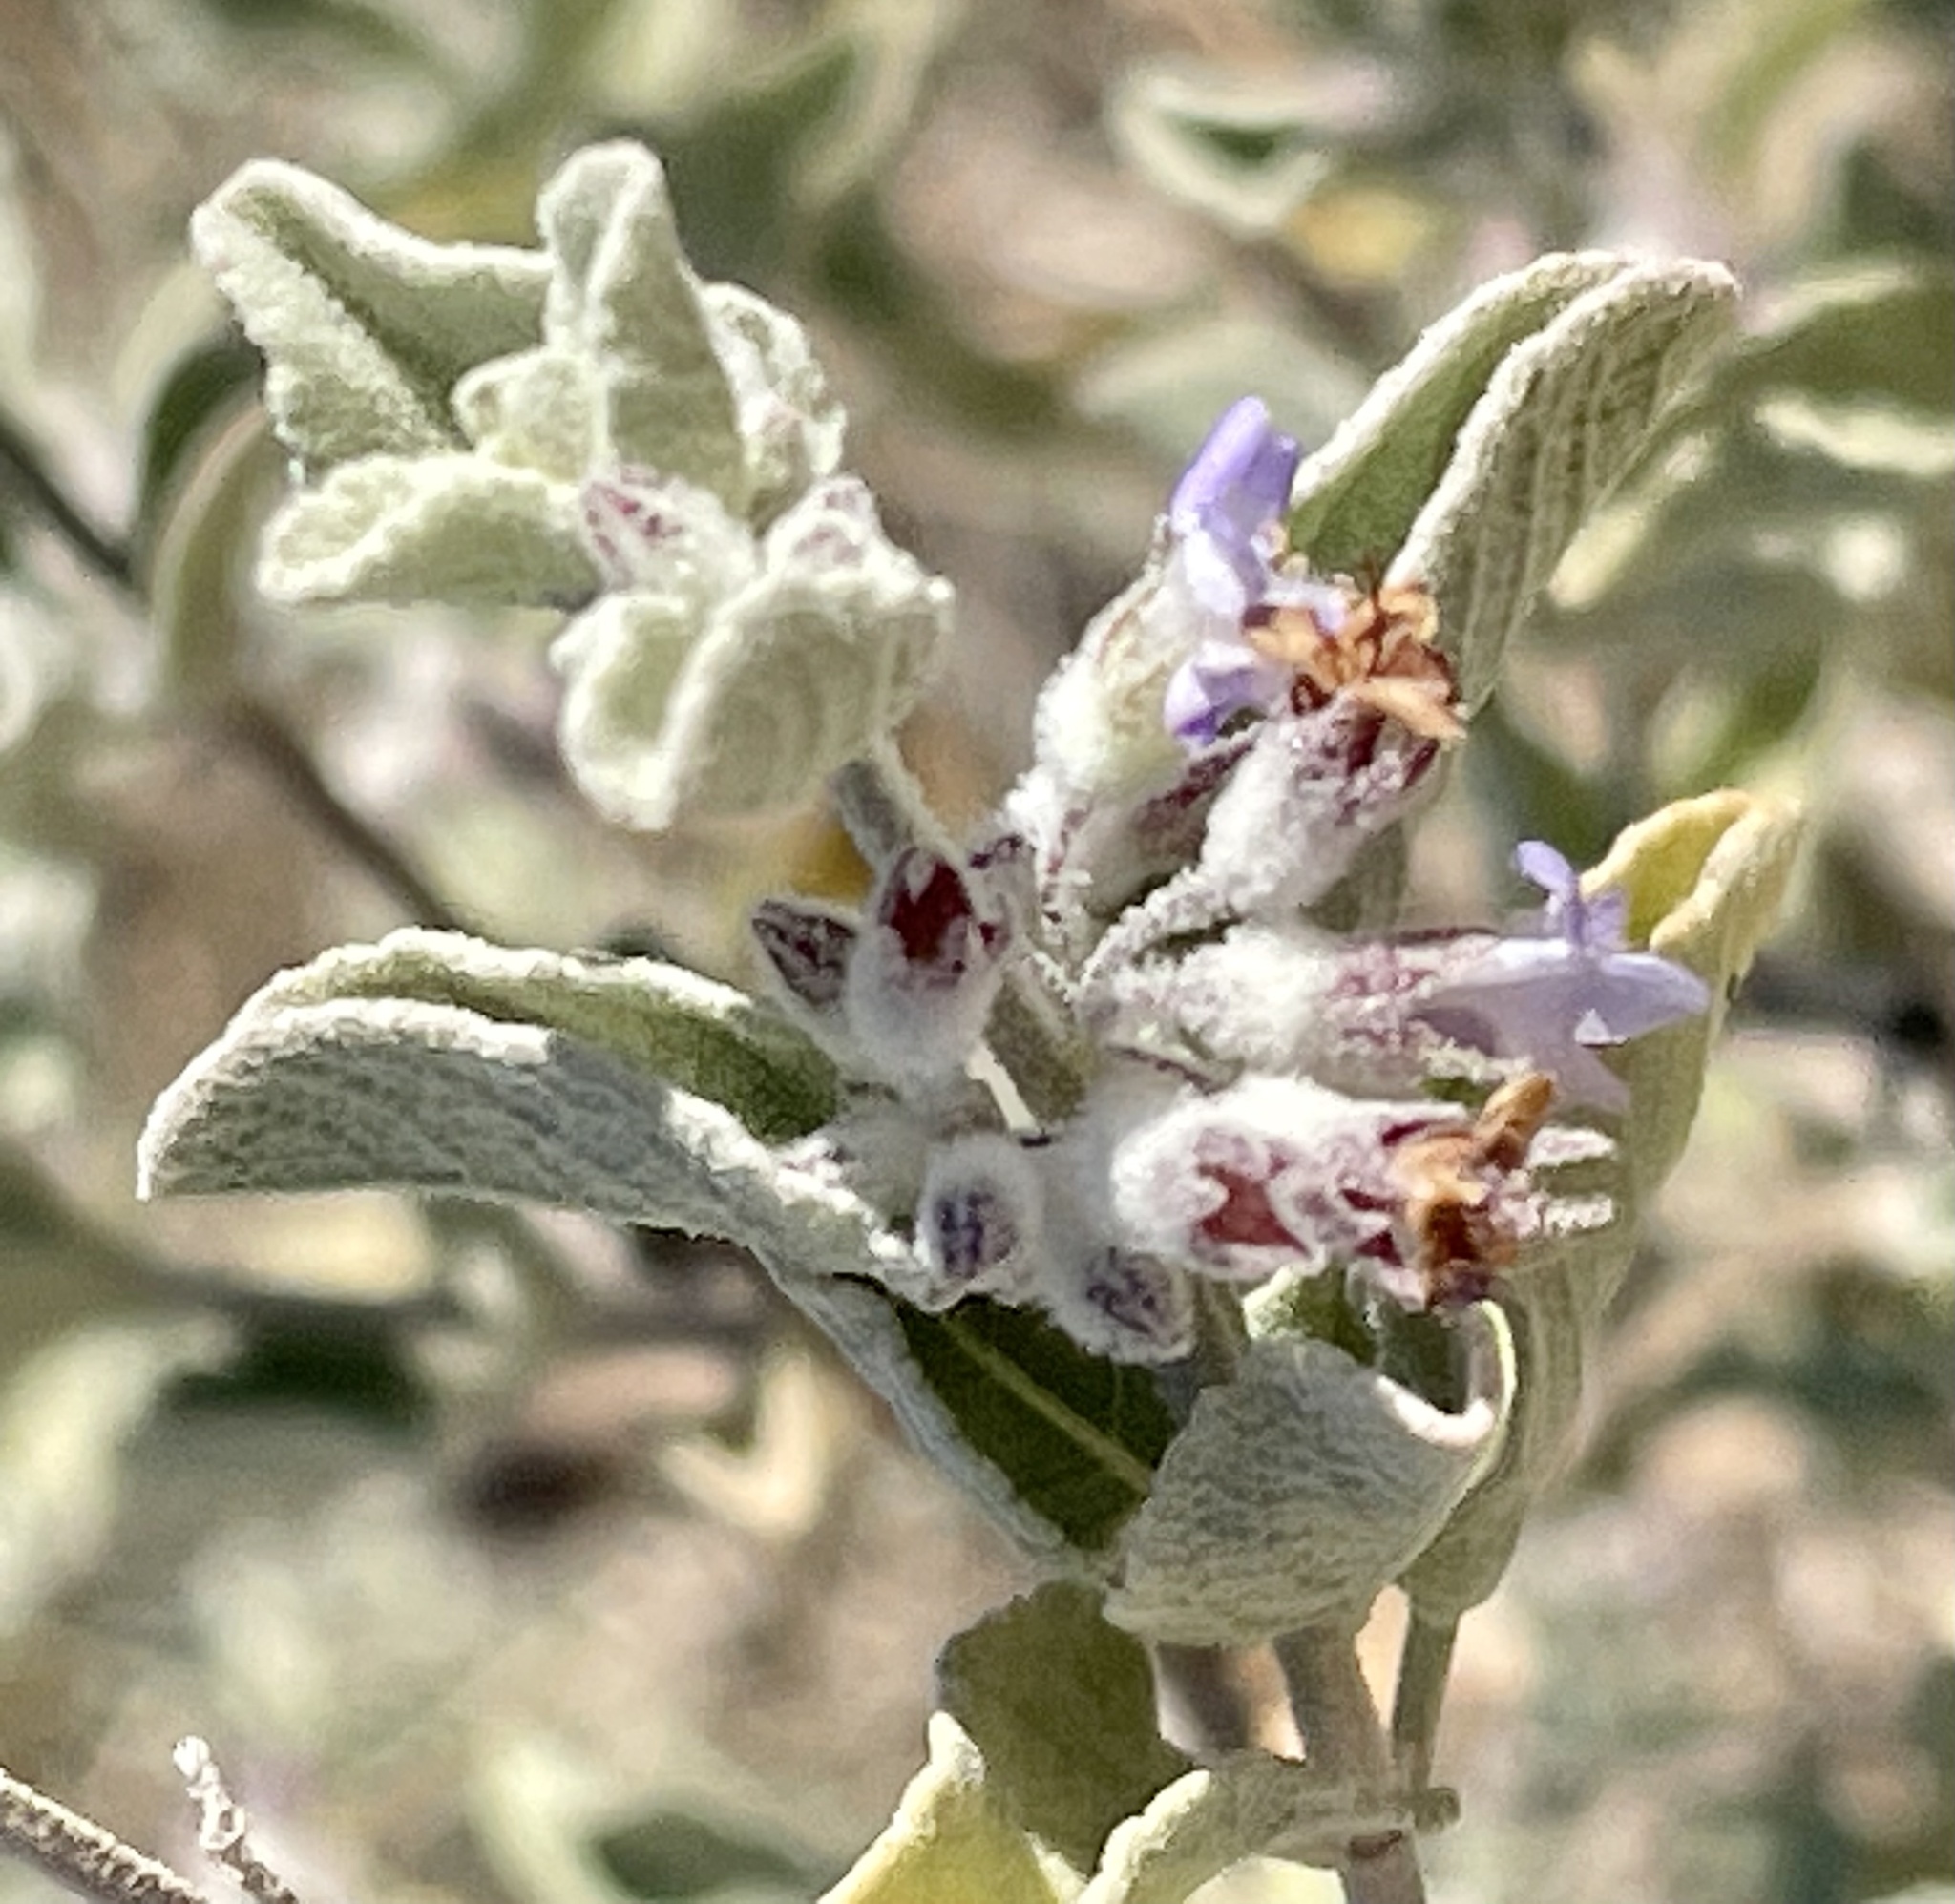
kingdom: Plantae
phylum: Tracheophyta
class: Magnoliopsida
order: Lamiales
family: Lamiaceae
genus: Condea
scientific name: Condea emoryi
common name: Chia
